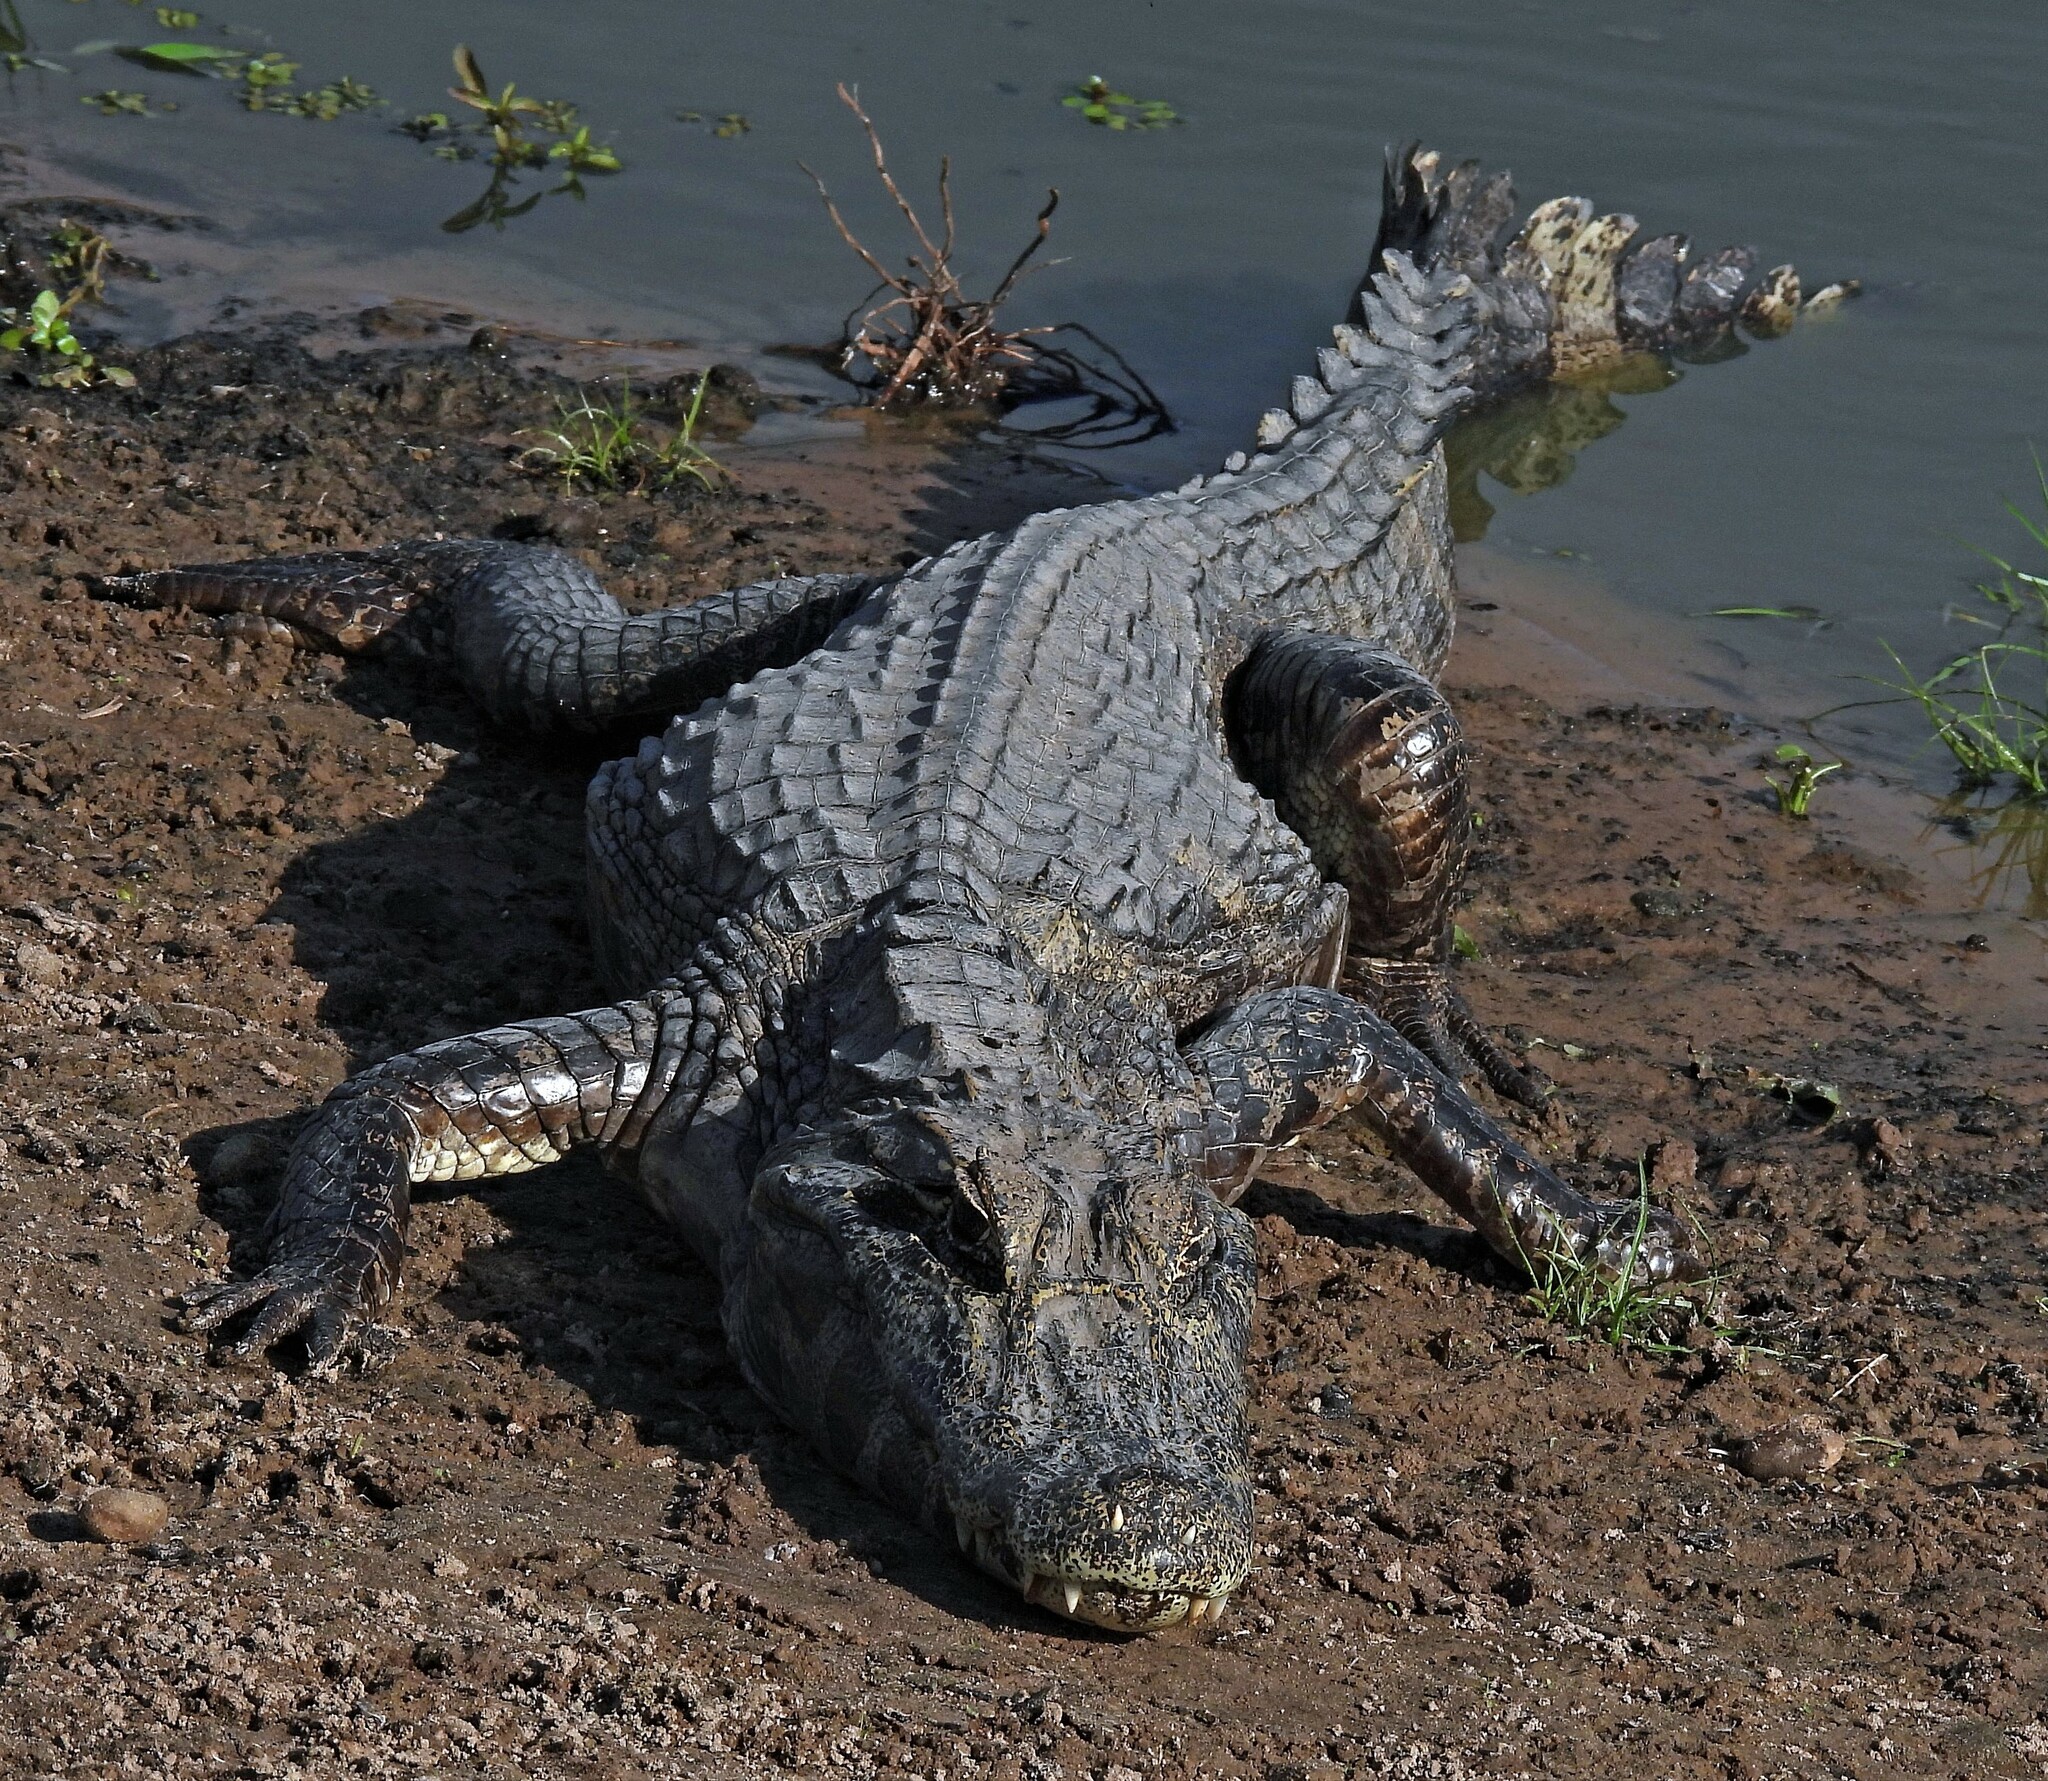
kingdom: Animalia
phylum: Chordata
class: Crocodylia
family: Alligatoridae
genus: Caiman
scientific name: Caiman latirostris
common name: Broad-snouted caiman
